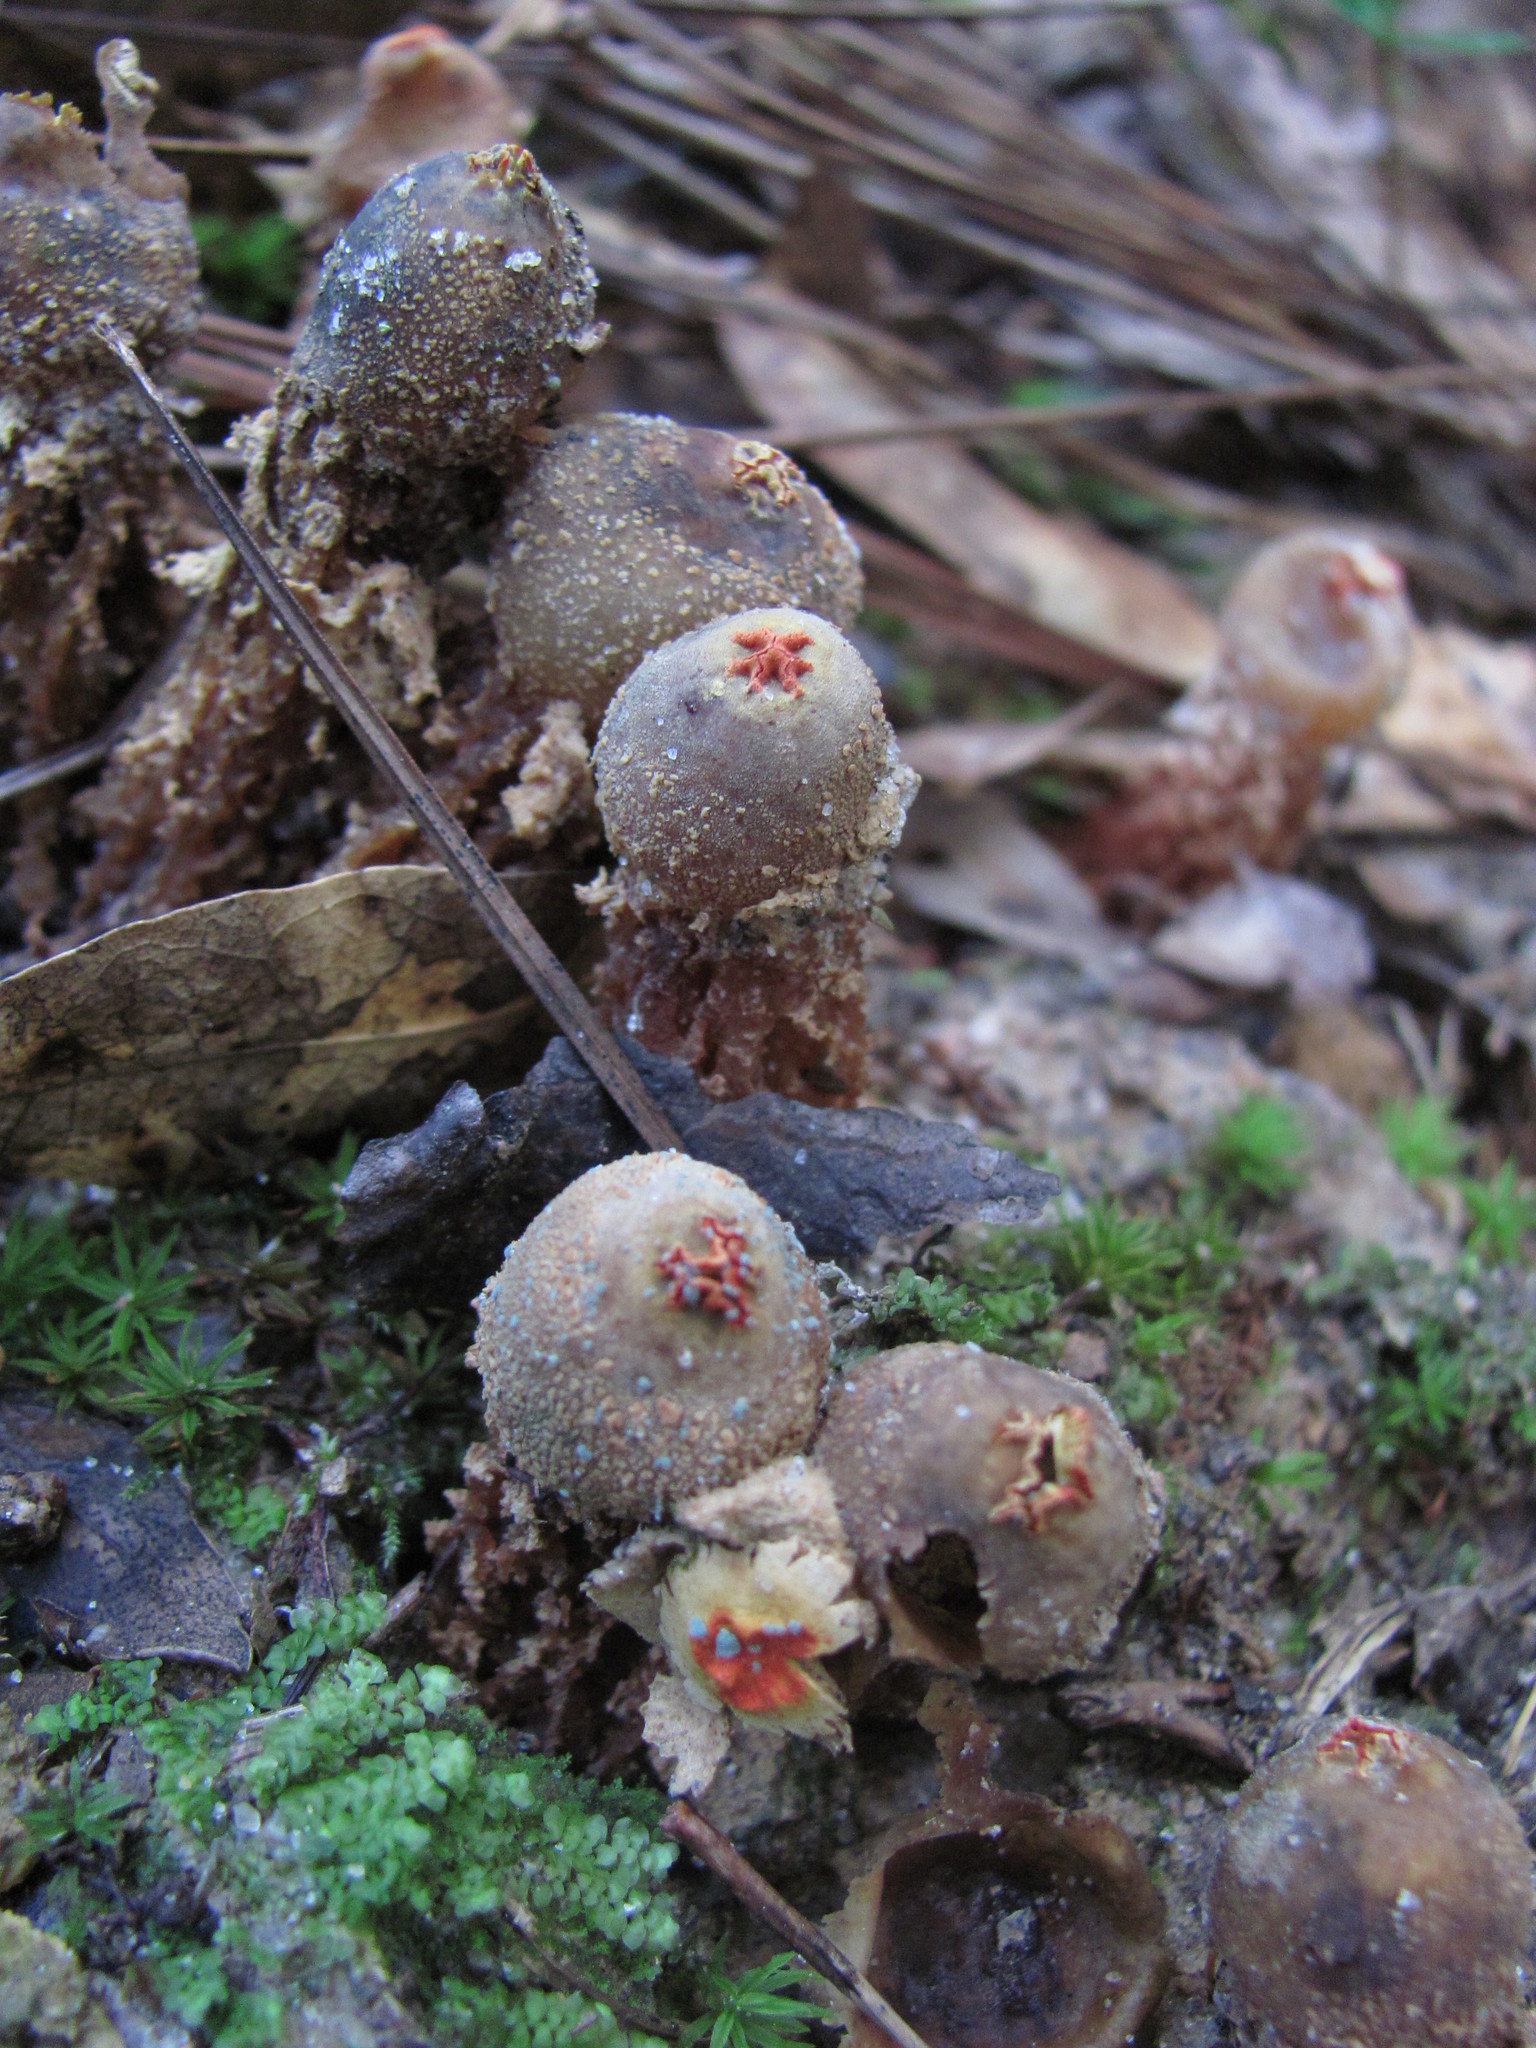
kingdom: Fungi
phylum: Basidiomycota
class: Agaricomycetes
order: Boletales
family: Calostomataceae
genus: Calostoma
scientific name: Calostoma ravenelii
